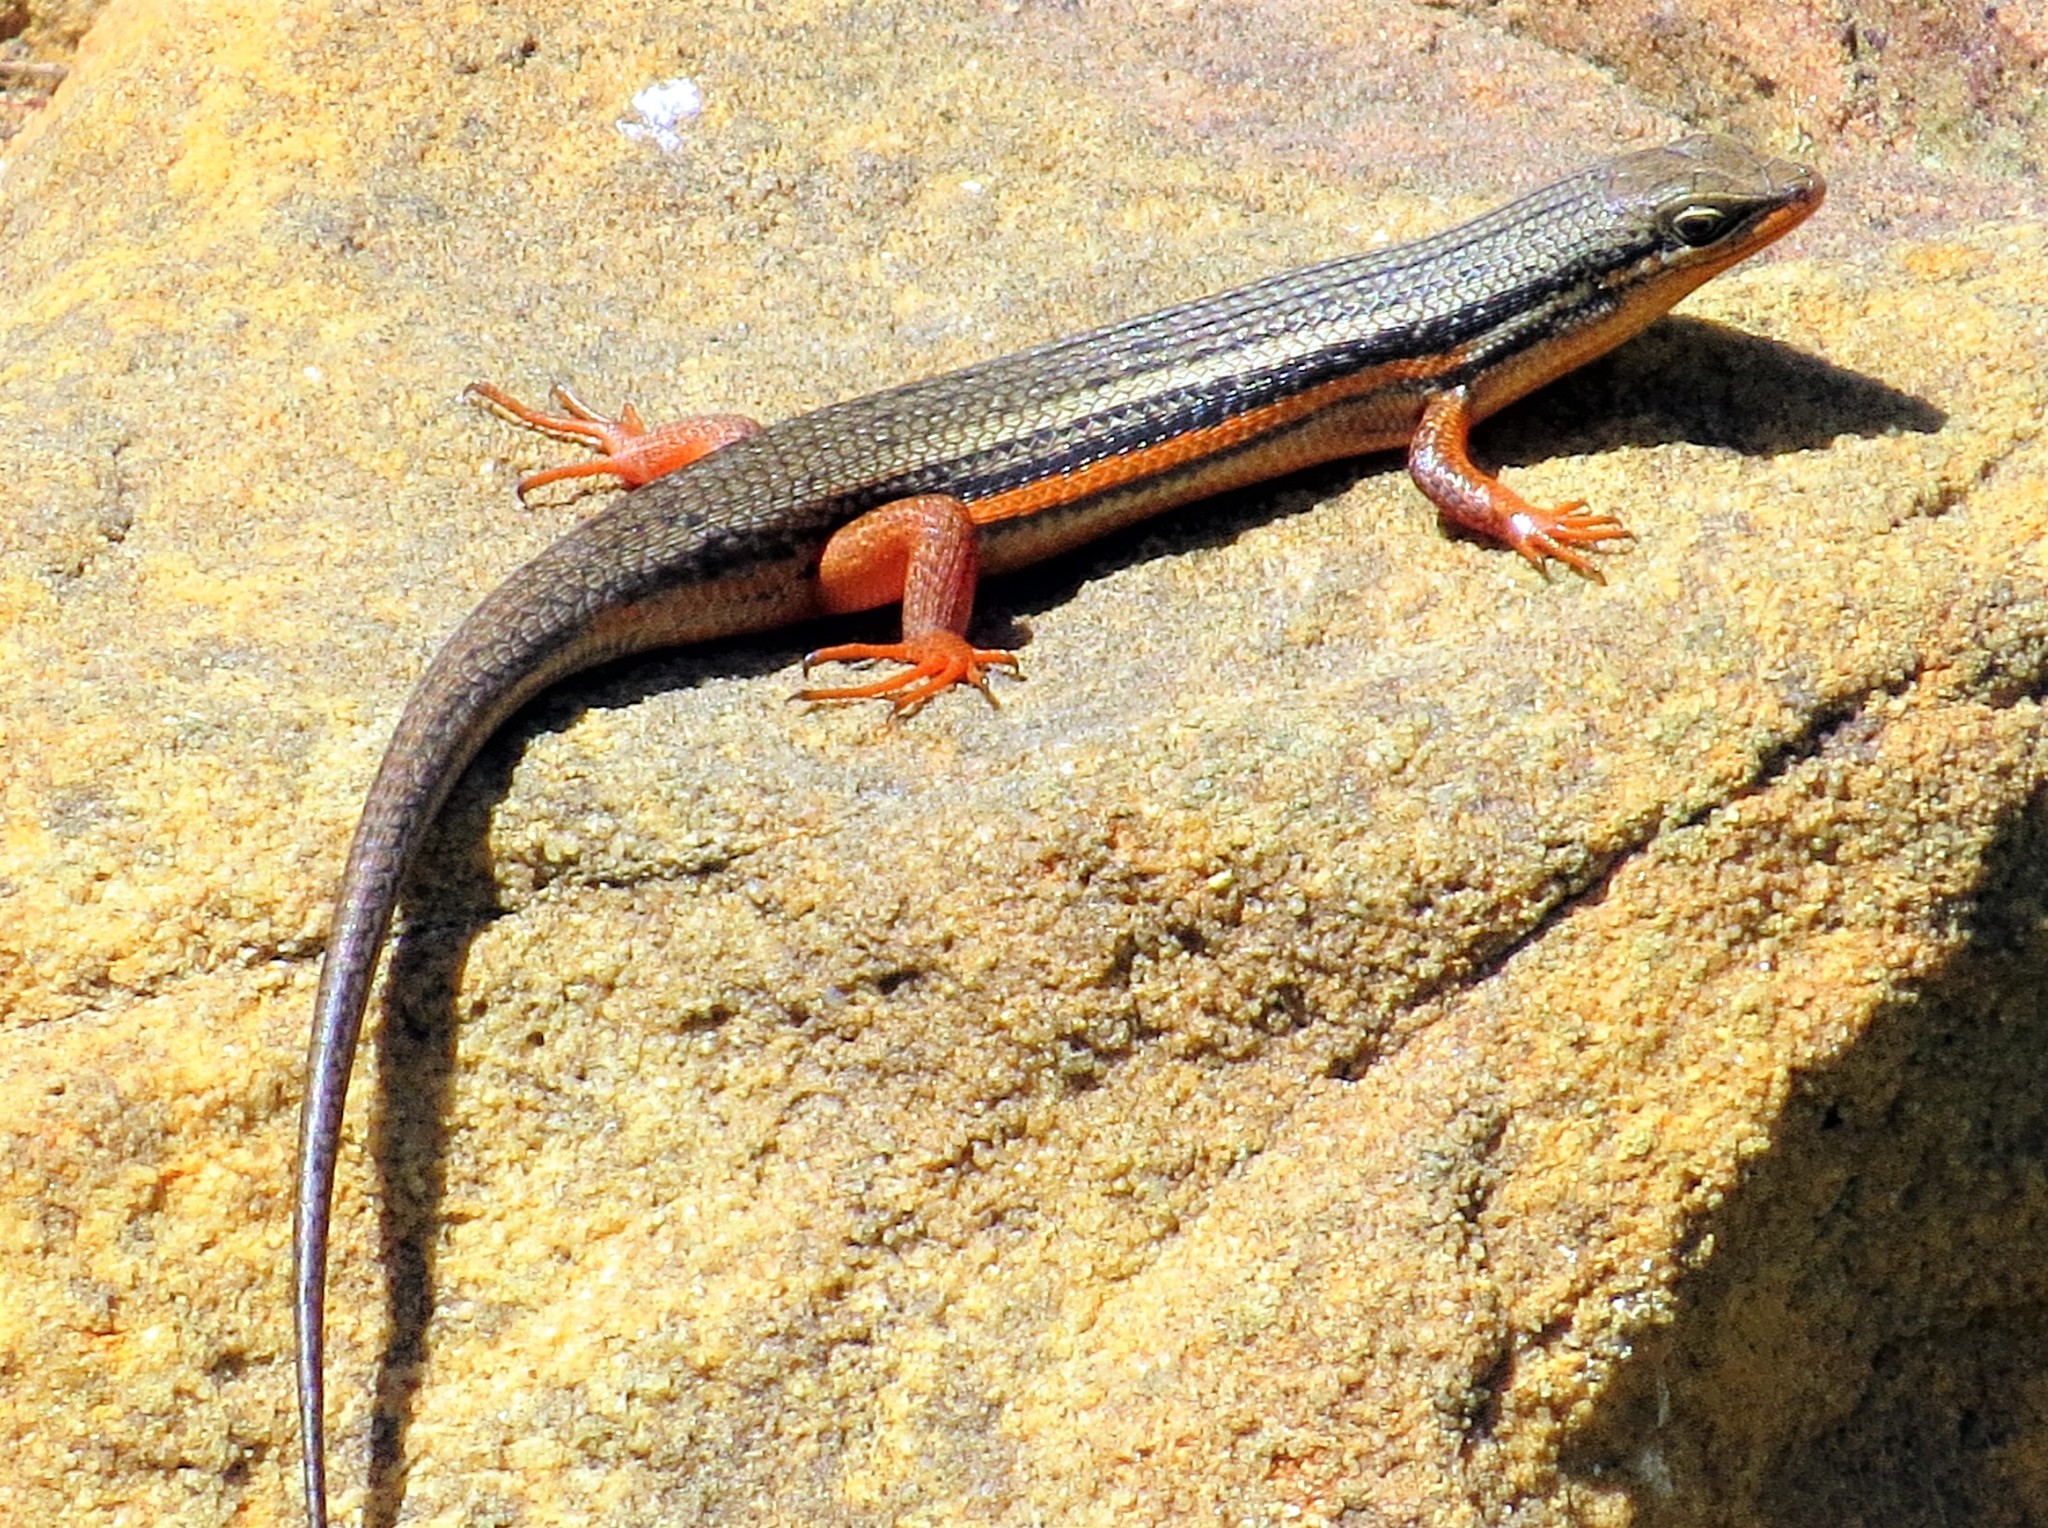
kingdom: Animalia
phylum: Chordata
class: Squamata
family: Scincidae
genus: Trachylepis
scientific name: Trachylepis homalocephala
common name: Red-sided skink
